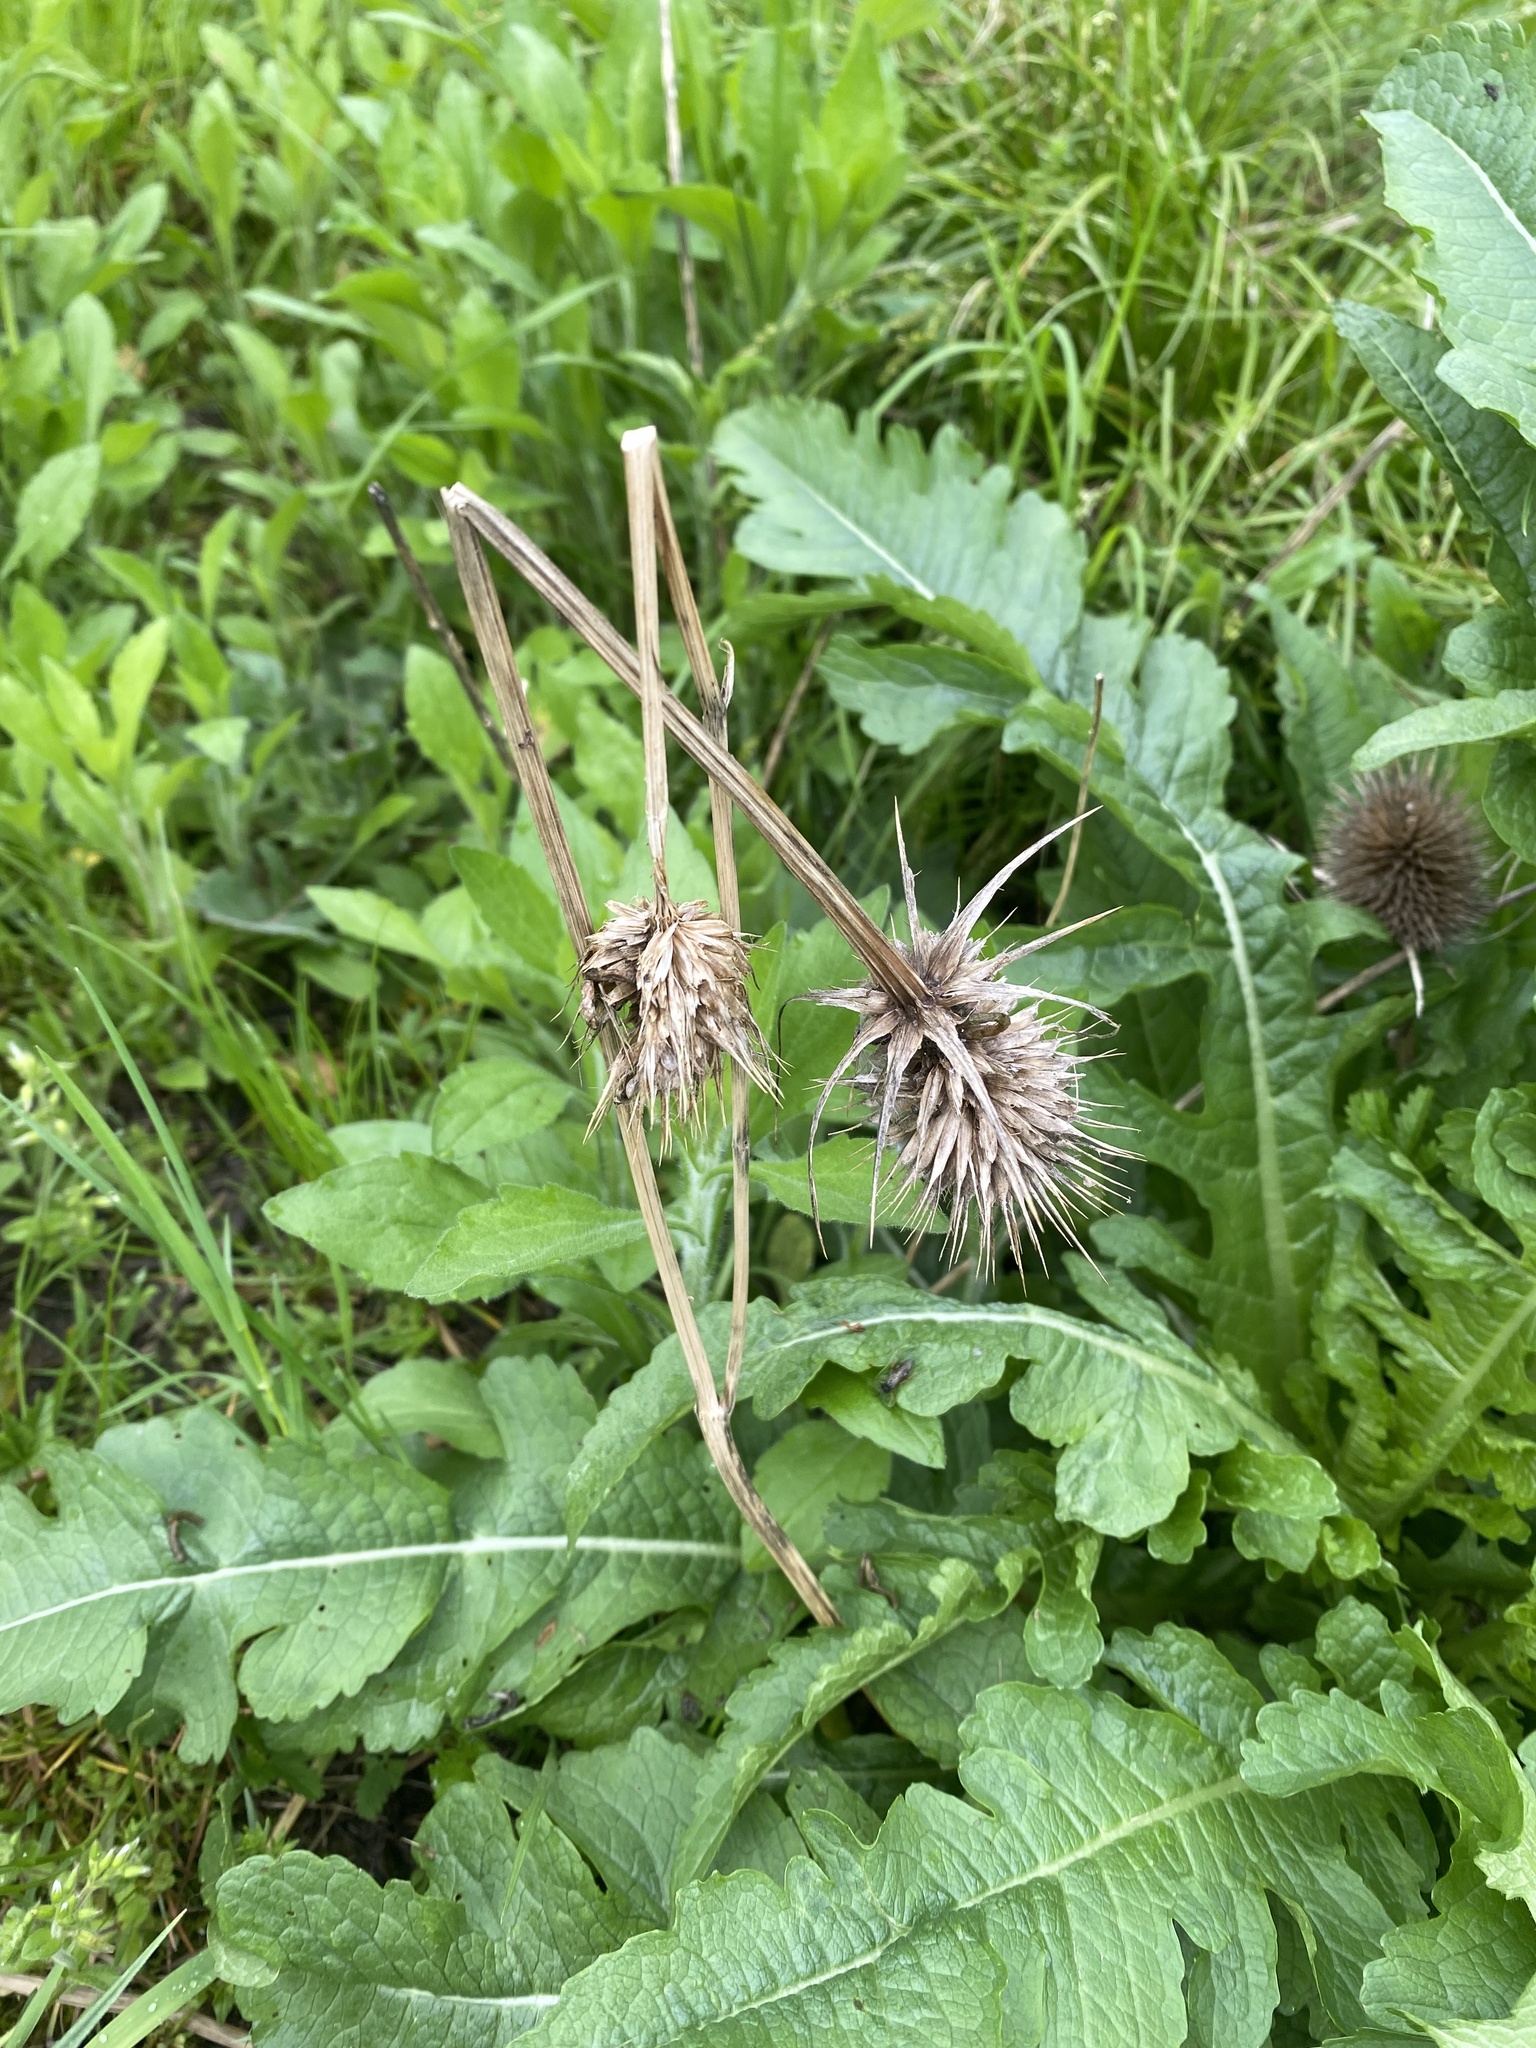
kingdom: Plantae
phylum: Tracheophyta
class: Magnoliopsida
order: Dipsacales
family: Caprifoliaceae
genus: Dipsacus
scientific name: Dipsacus laciniatus
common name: Cut-leaved teasel
